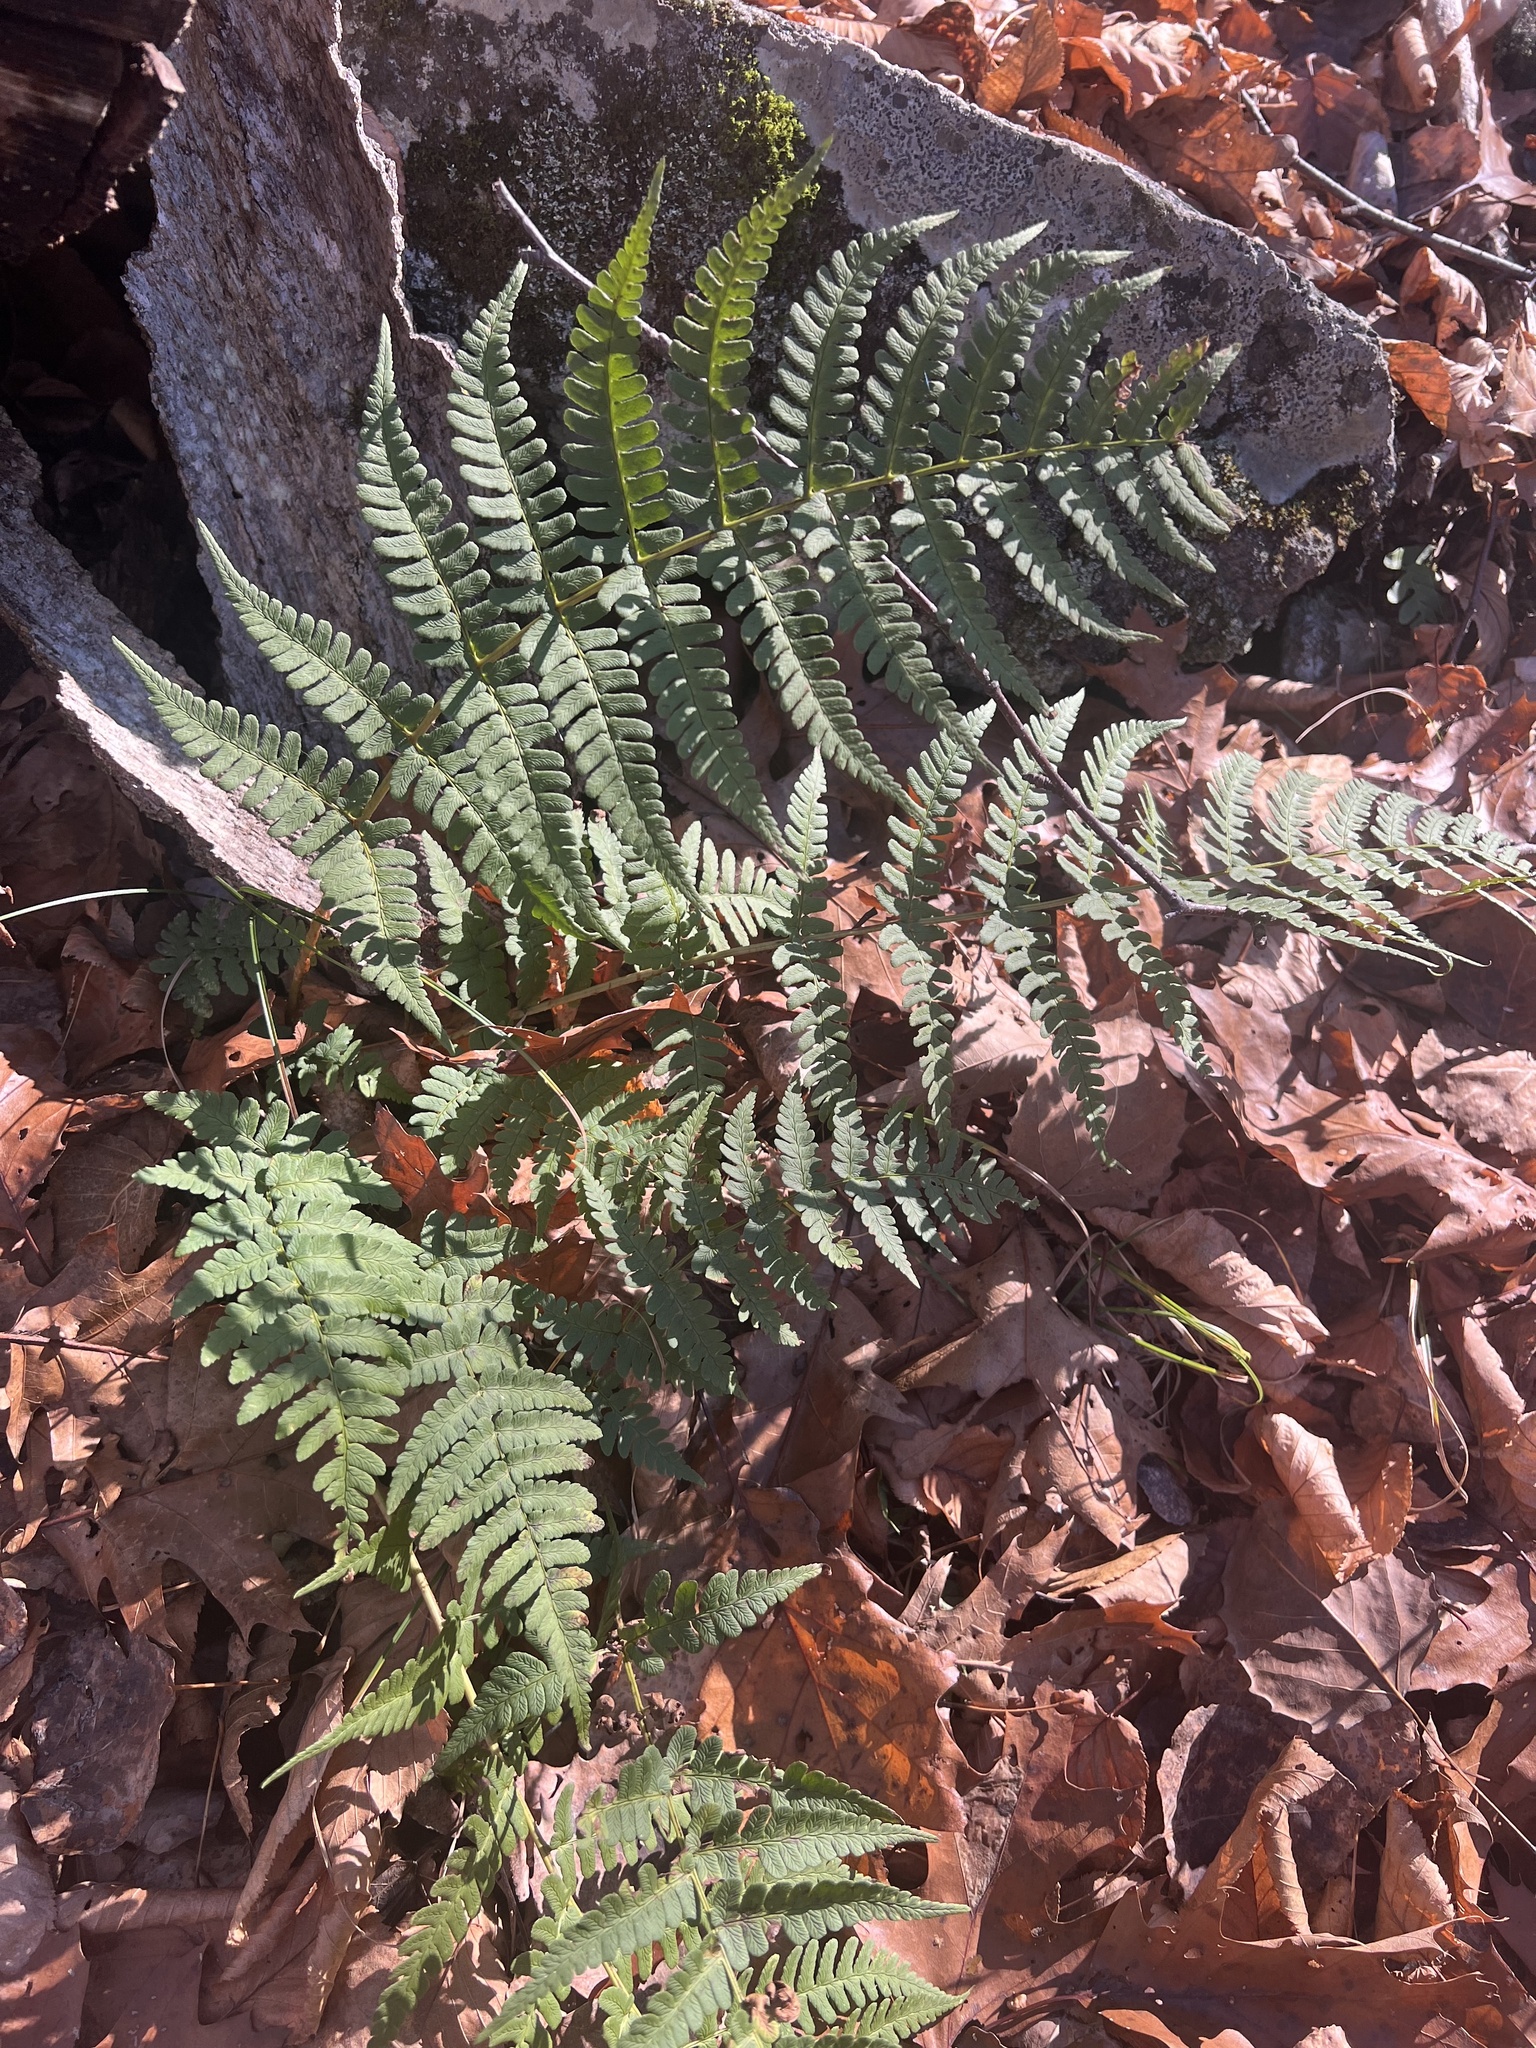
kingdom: Plantae
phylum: Tracheophyta
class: Polypodiopsida
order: Polypodiales
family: Dryopteridaceae
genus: Dryopteris
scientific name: Dryopteris marginalis
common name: Marginal wood fern
